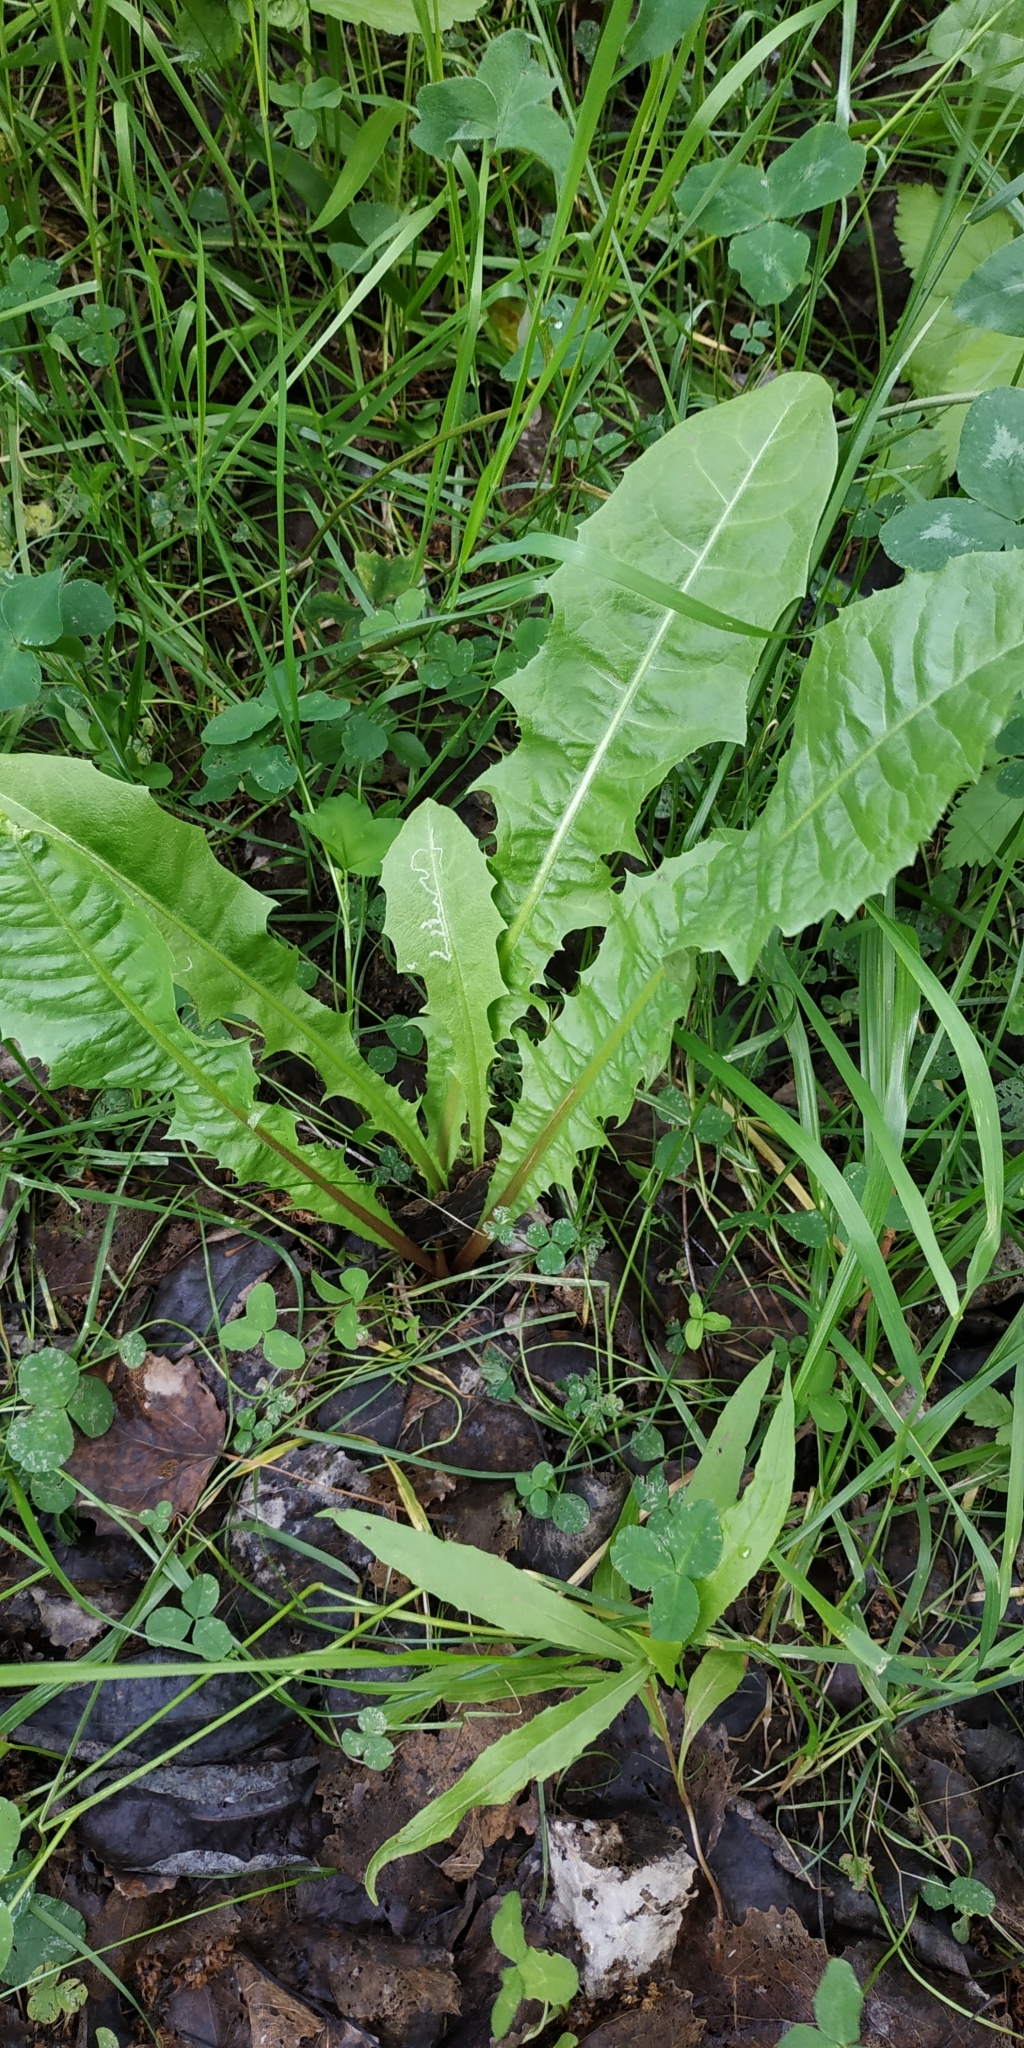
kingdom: Plantae
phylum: Tracheophyta
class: Magnoliopsida
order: Asterales
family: Asteraceae
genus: Taraxacum
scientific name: Taraxacum officinale
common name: Common dandelion
